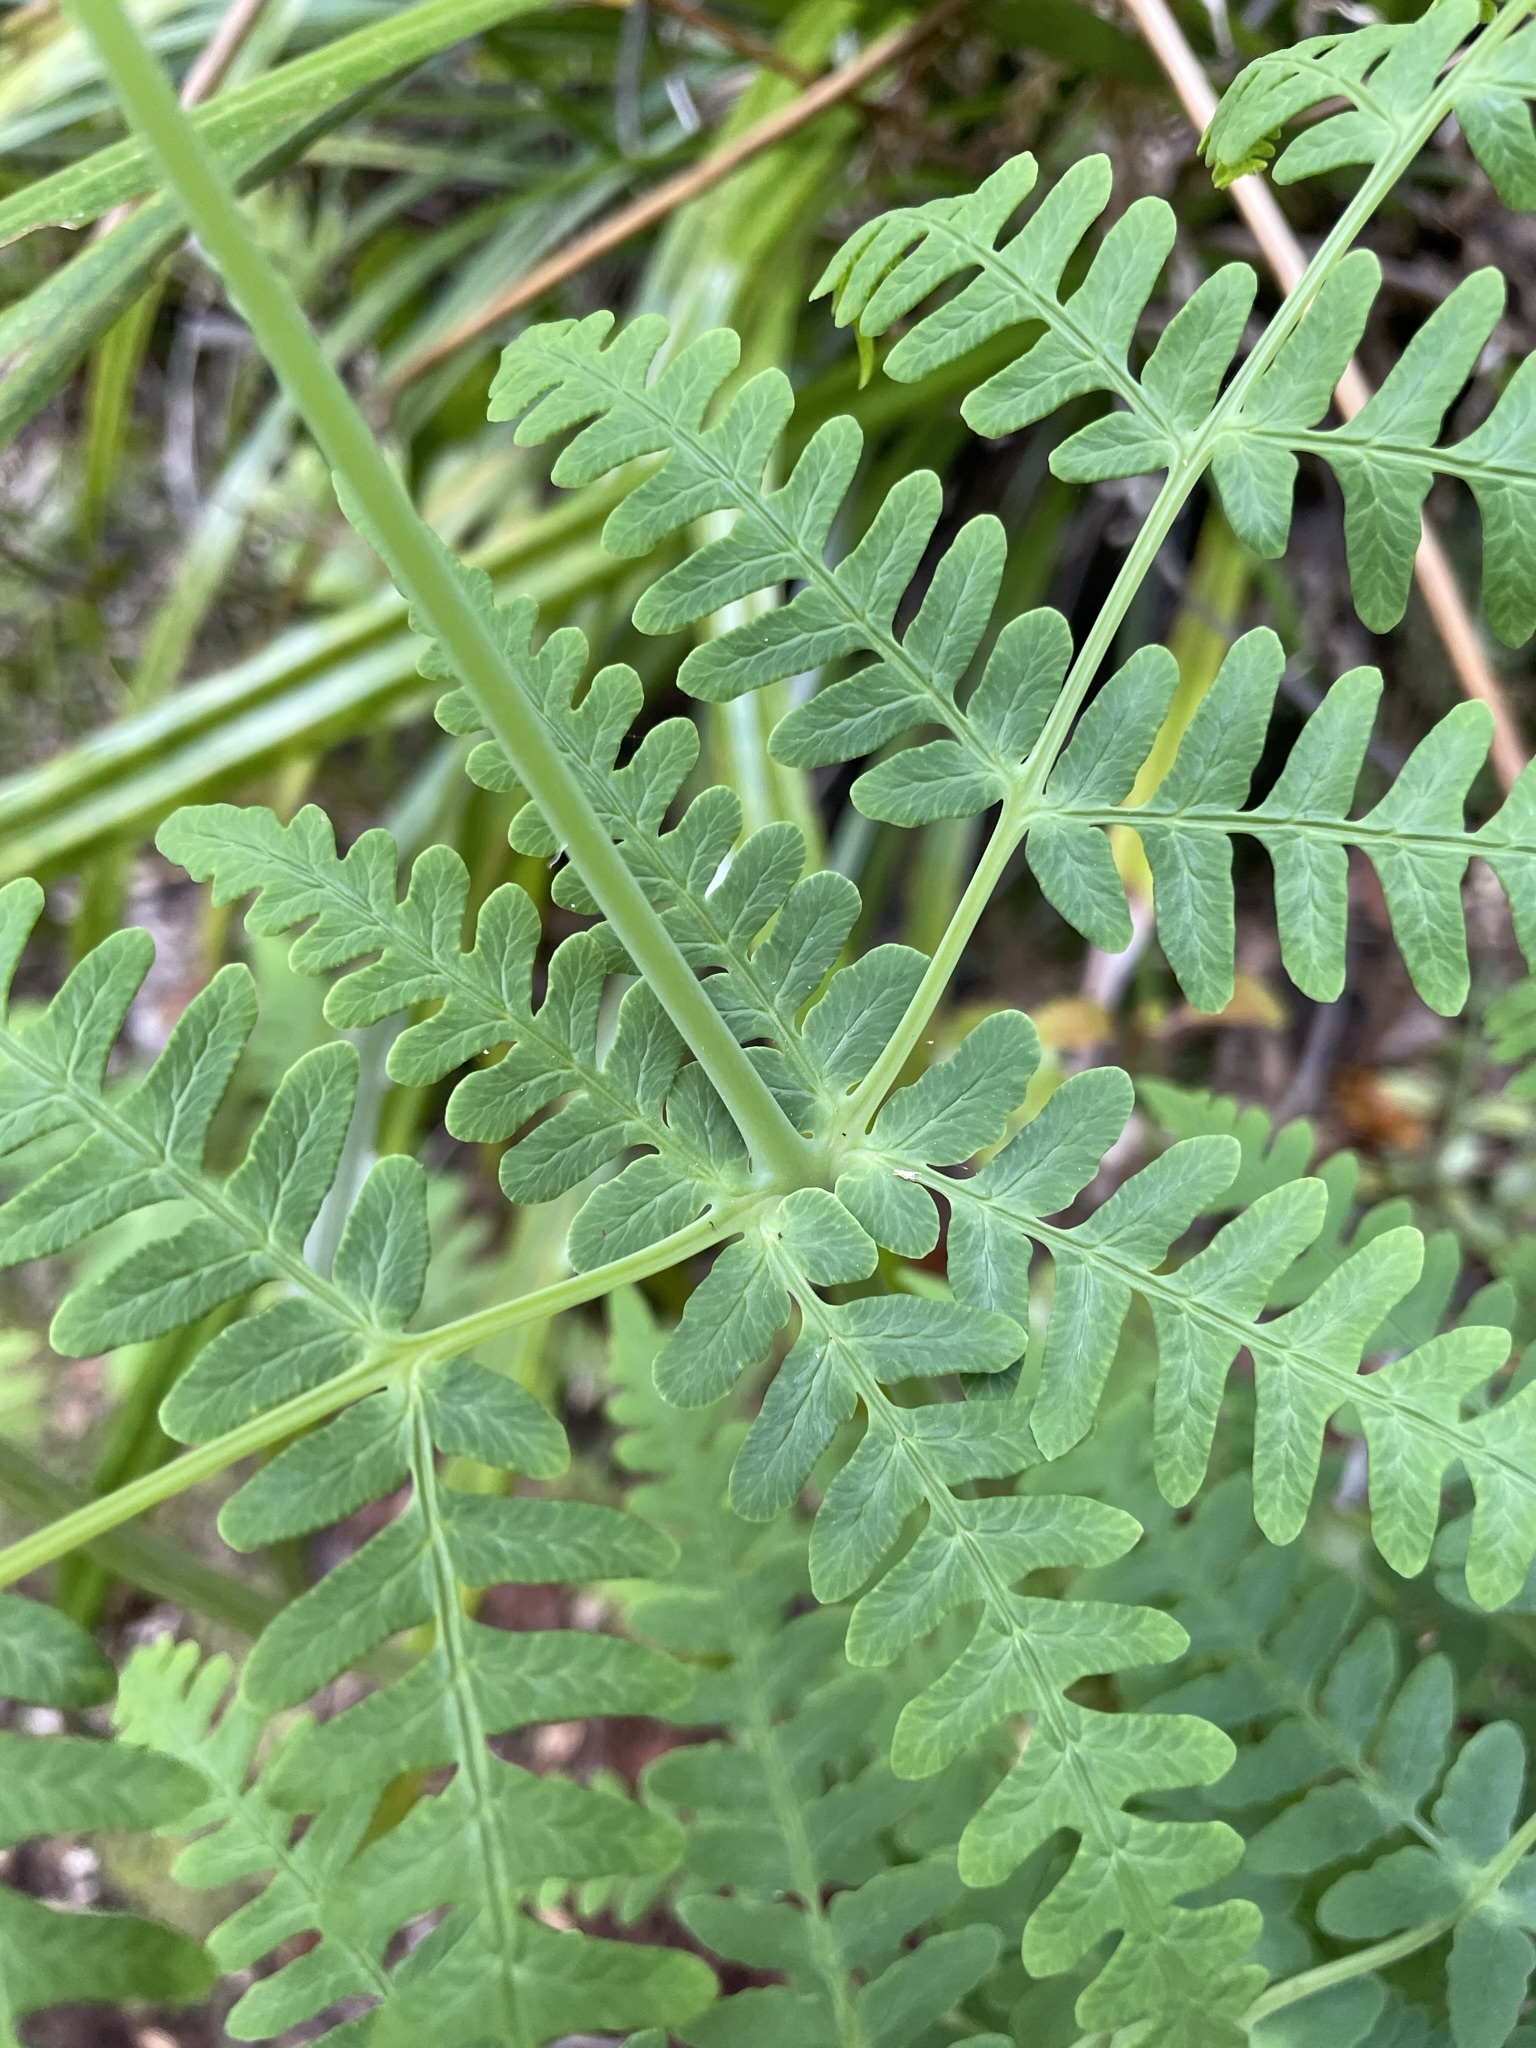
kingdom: Plantae
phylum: Tracheophyta
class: Polypodiopsida
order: Polypodiales
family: Dennstaedtiaceae
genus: Histiopteris
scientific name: Histiopteris incisa
